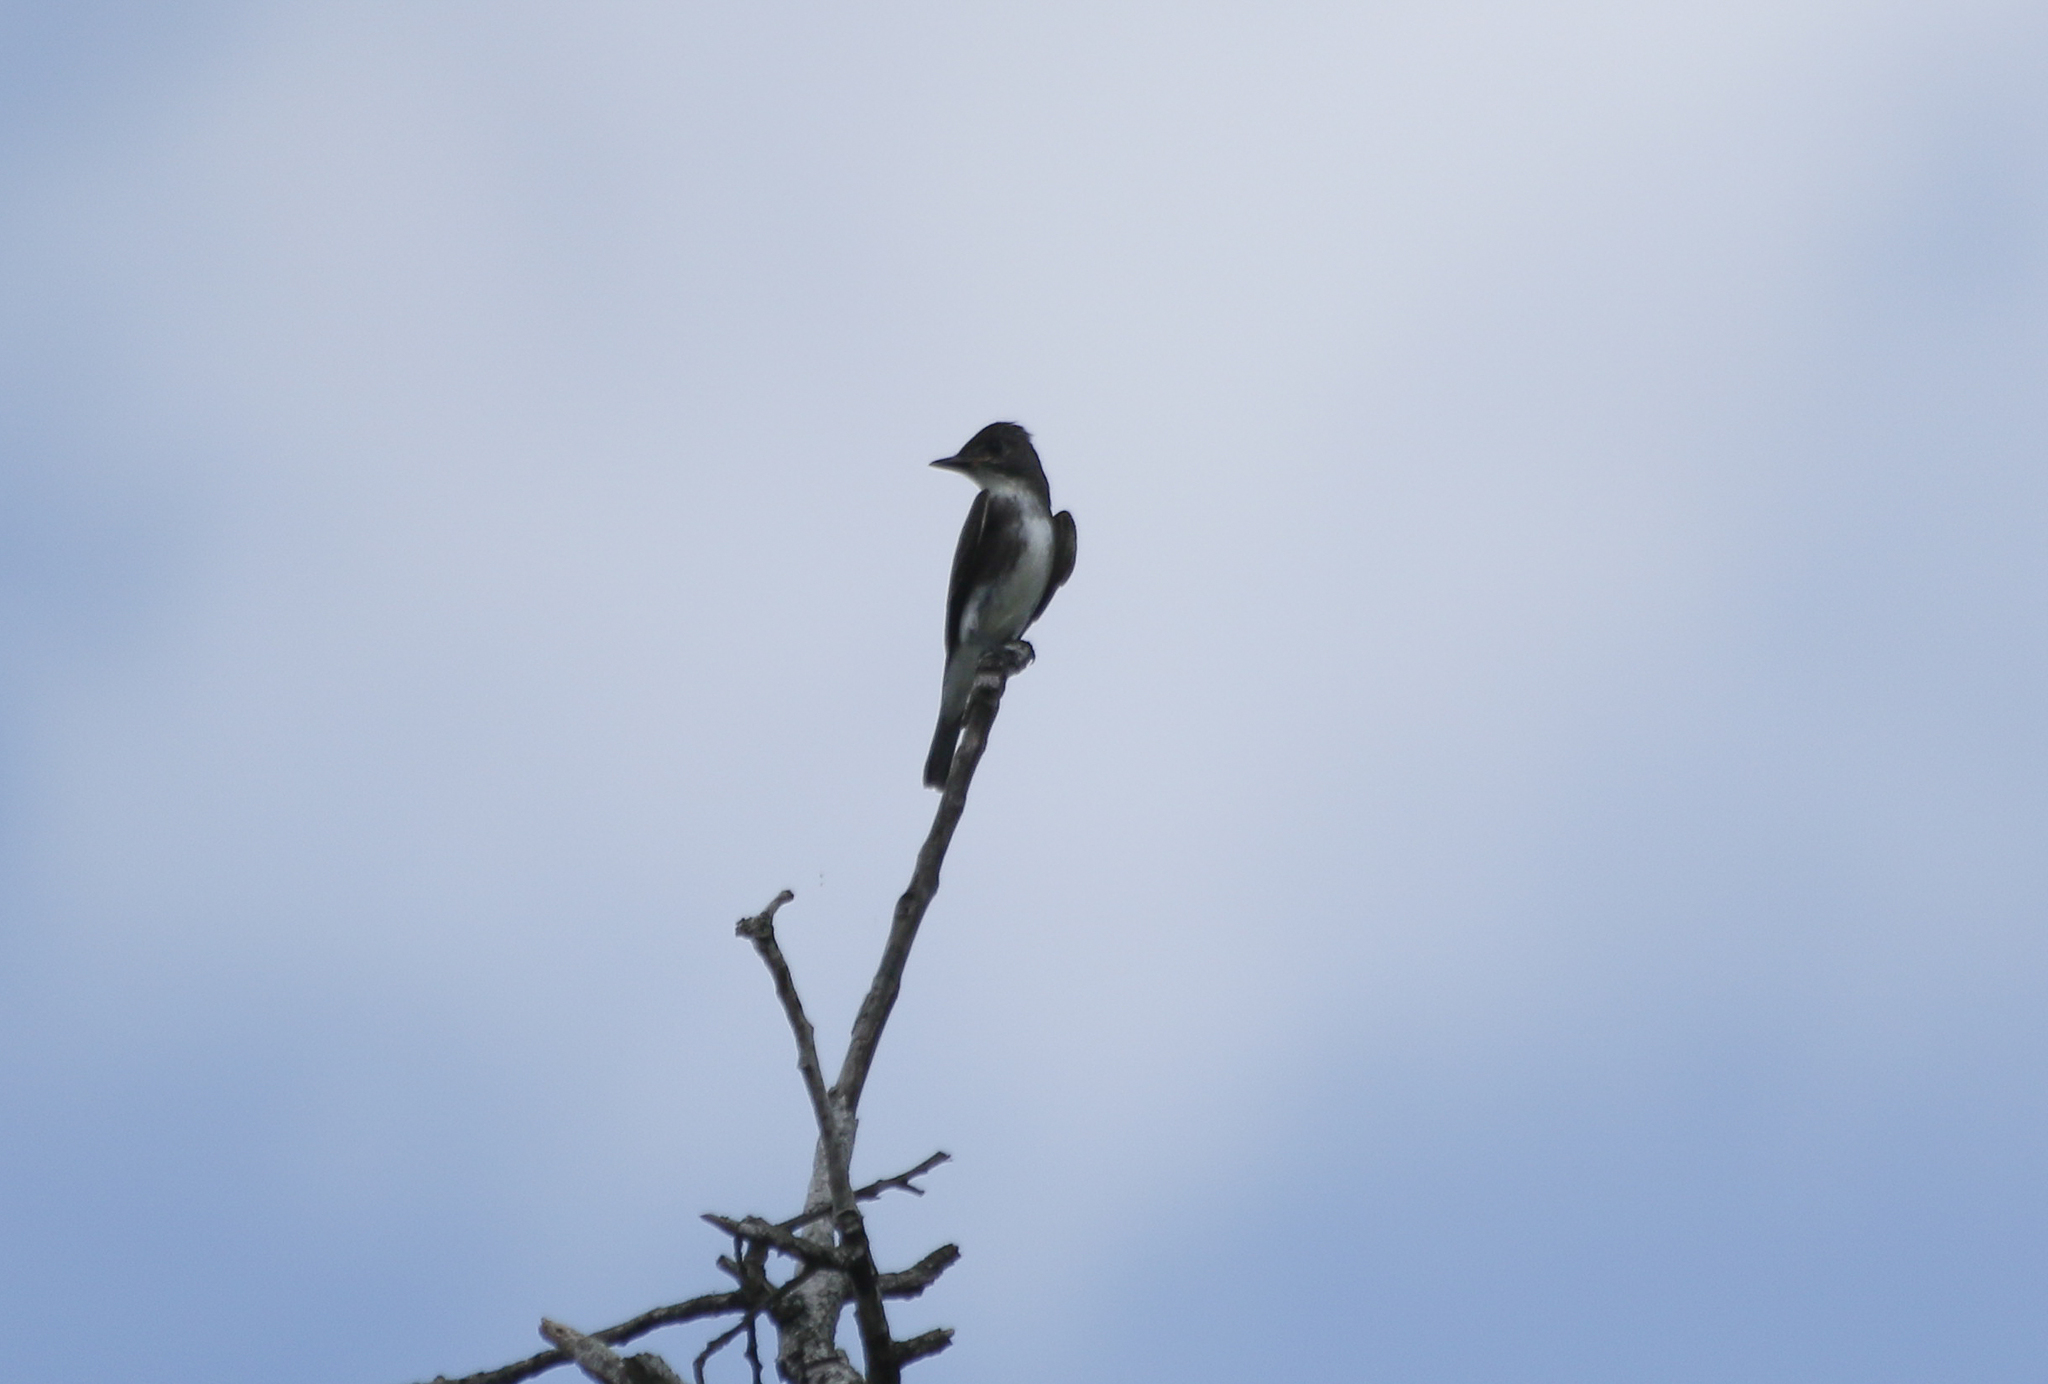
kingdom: Animalia
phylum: Chordata
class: Aves
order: Passeriformes
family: Tyrannidae
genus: Contopus
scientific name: Contopus cooperi
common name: Olive-sided flycatcher
